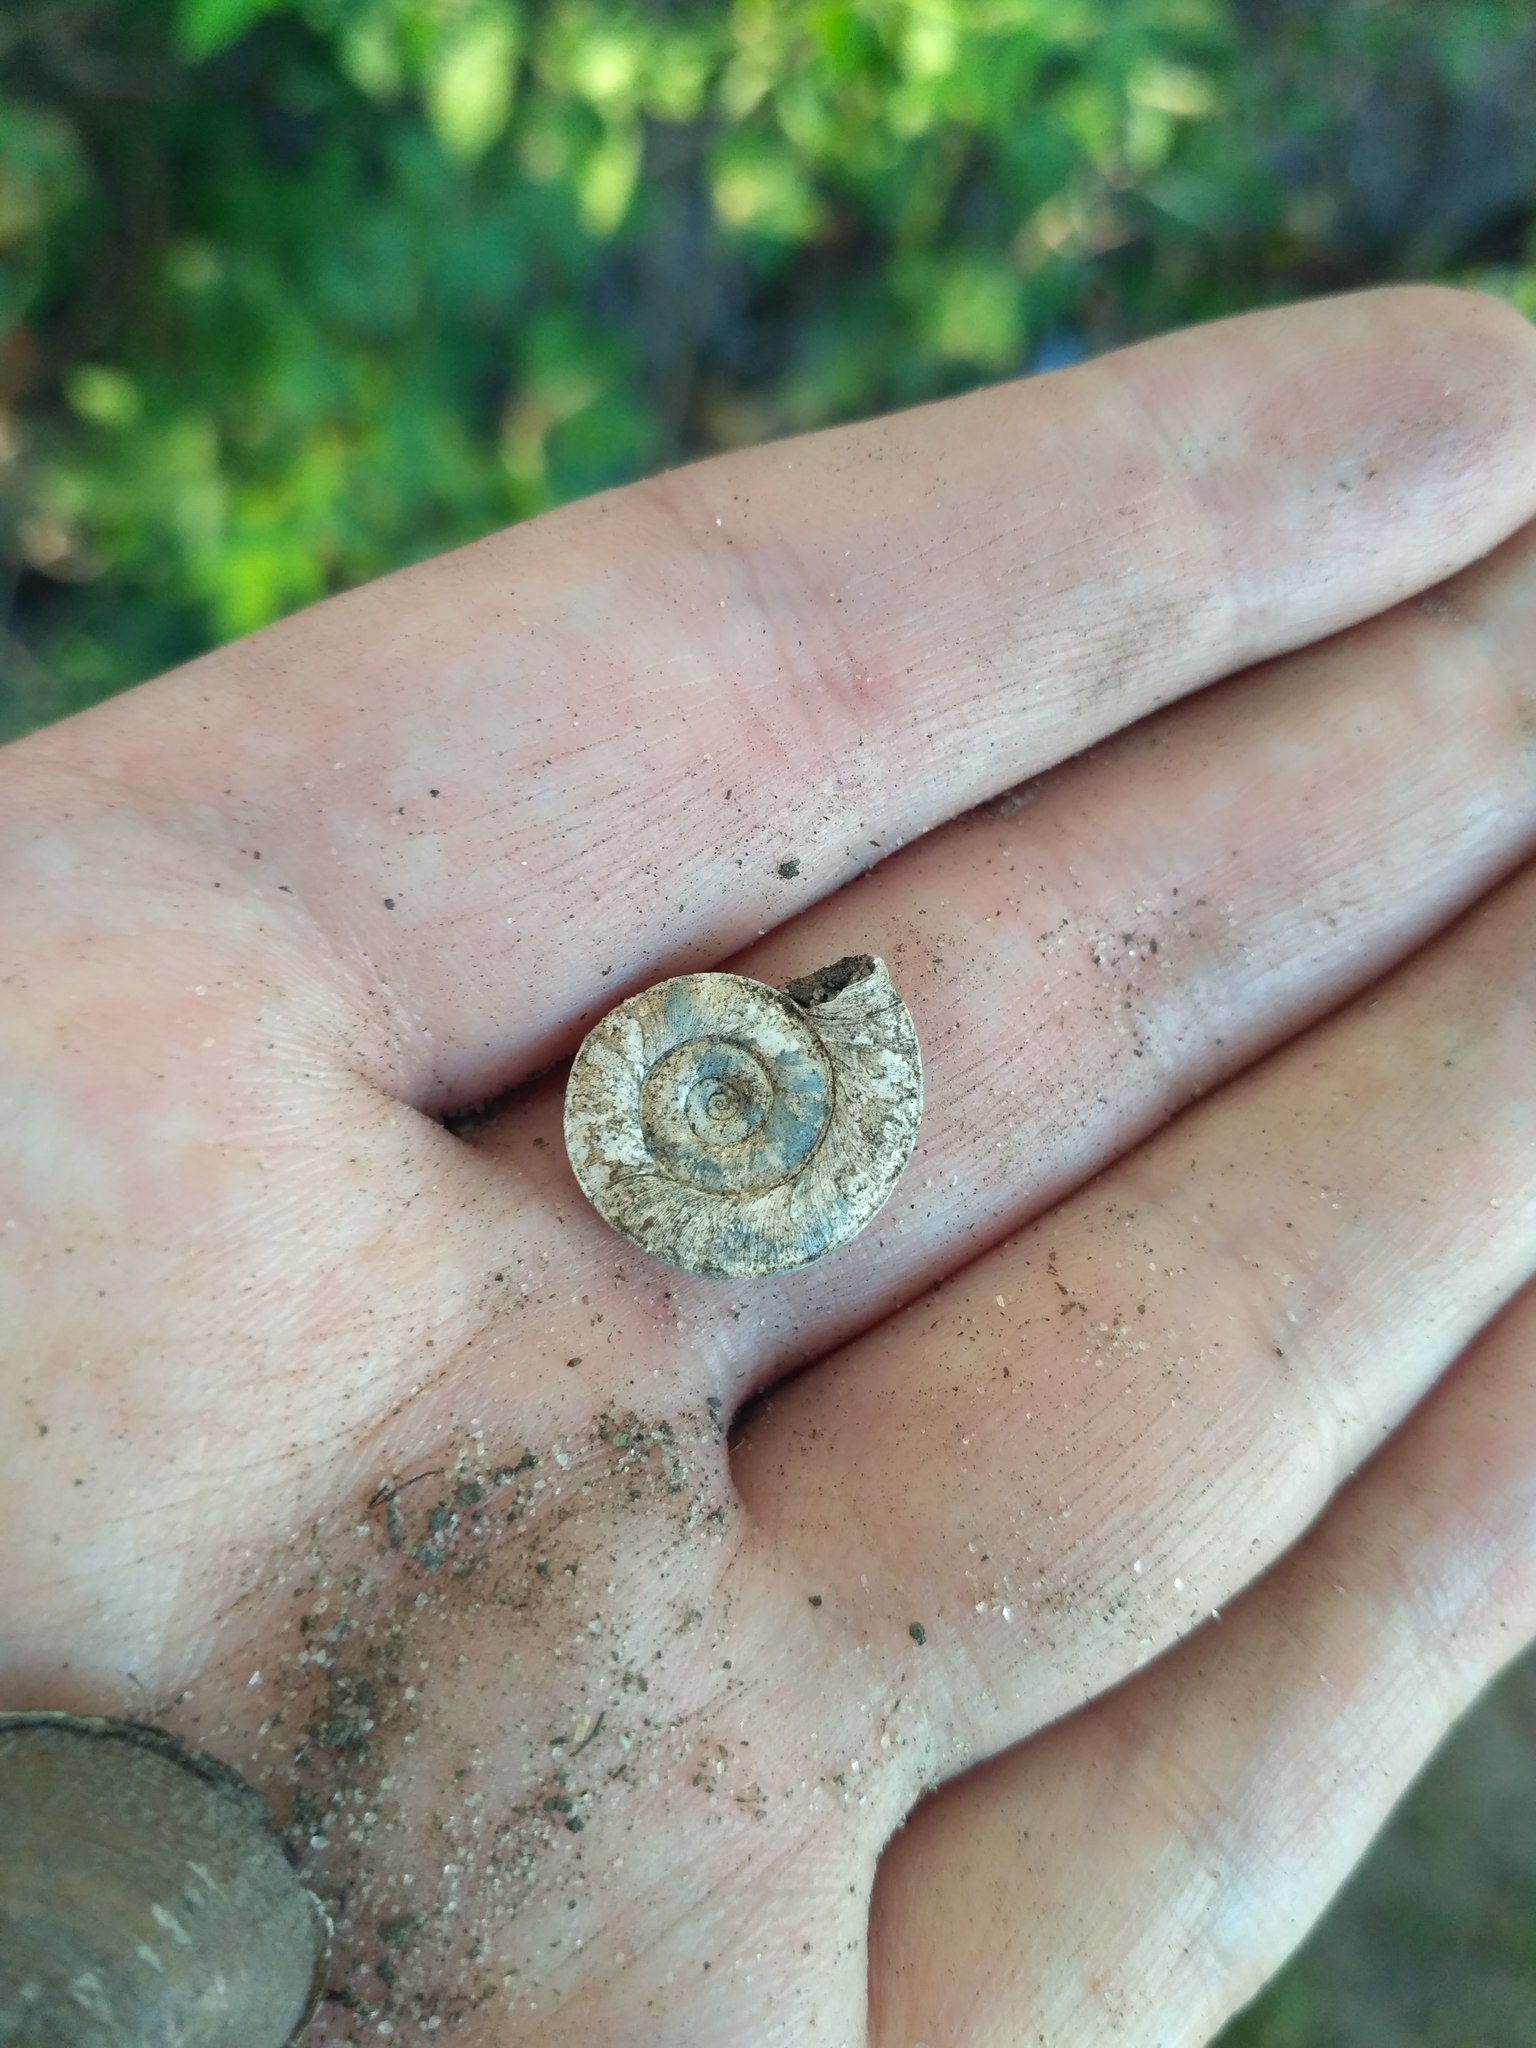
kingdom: Animalia
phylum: Mollusca
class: Gastropoda
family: Planorbidae
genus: Planorbis
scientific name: Planorbis planorbis
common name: Margined ramshorn
